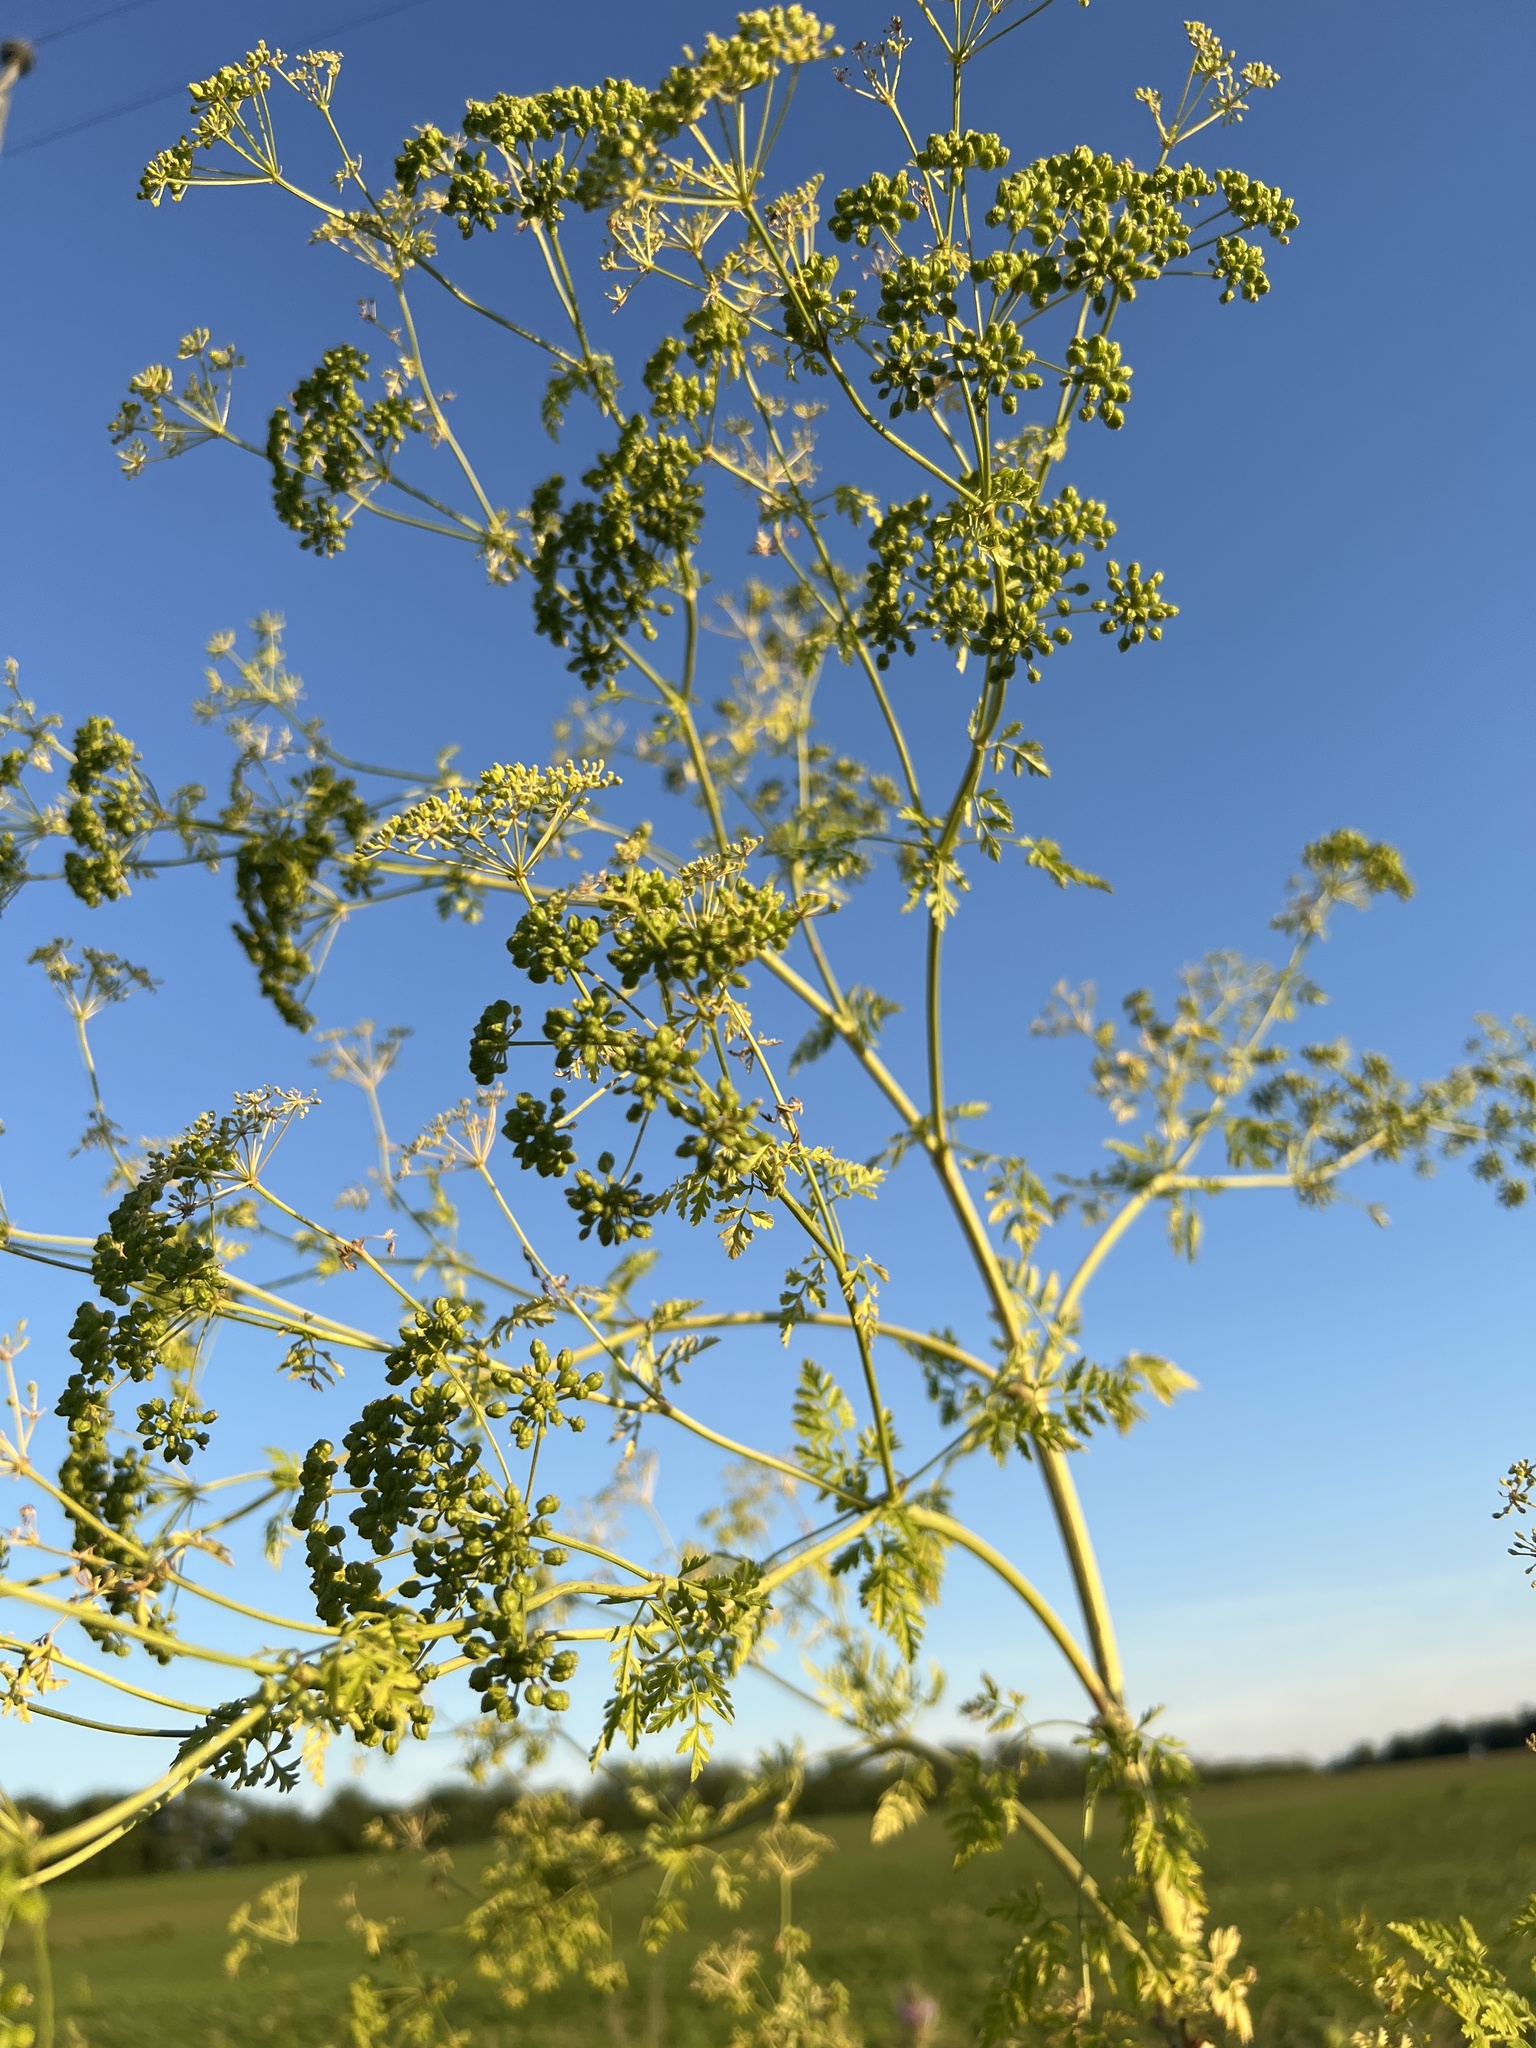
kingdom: Plantae
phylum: Tracheophyta
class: Magnoliopsida
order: Apiales
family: Apiaceae
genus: Conium
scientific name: Conium maculatum
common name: Hemlock
